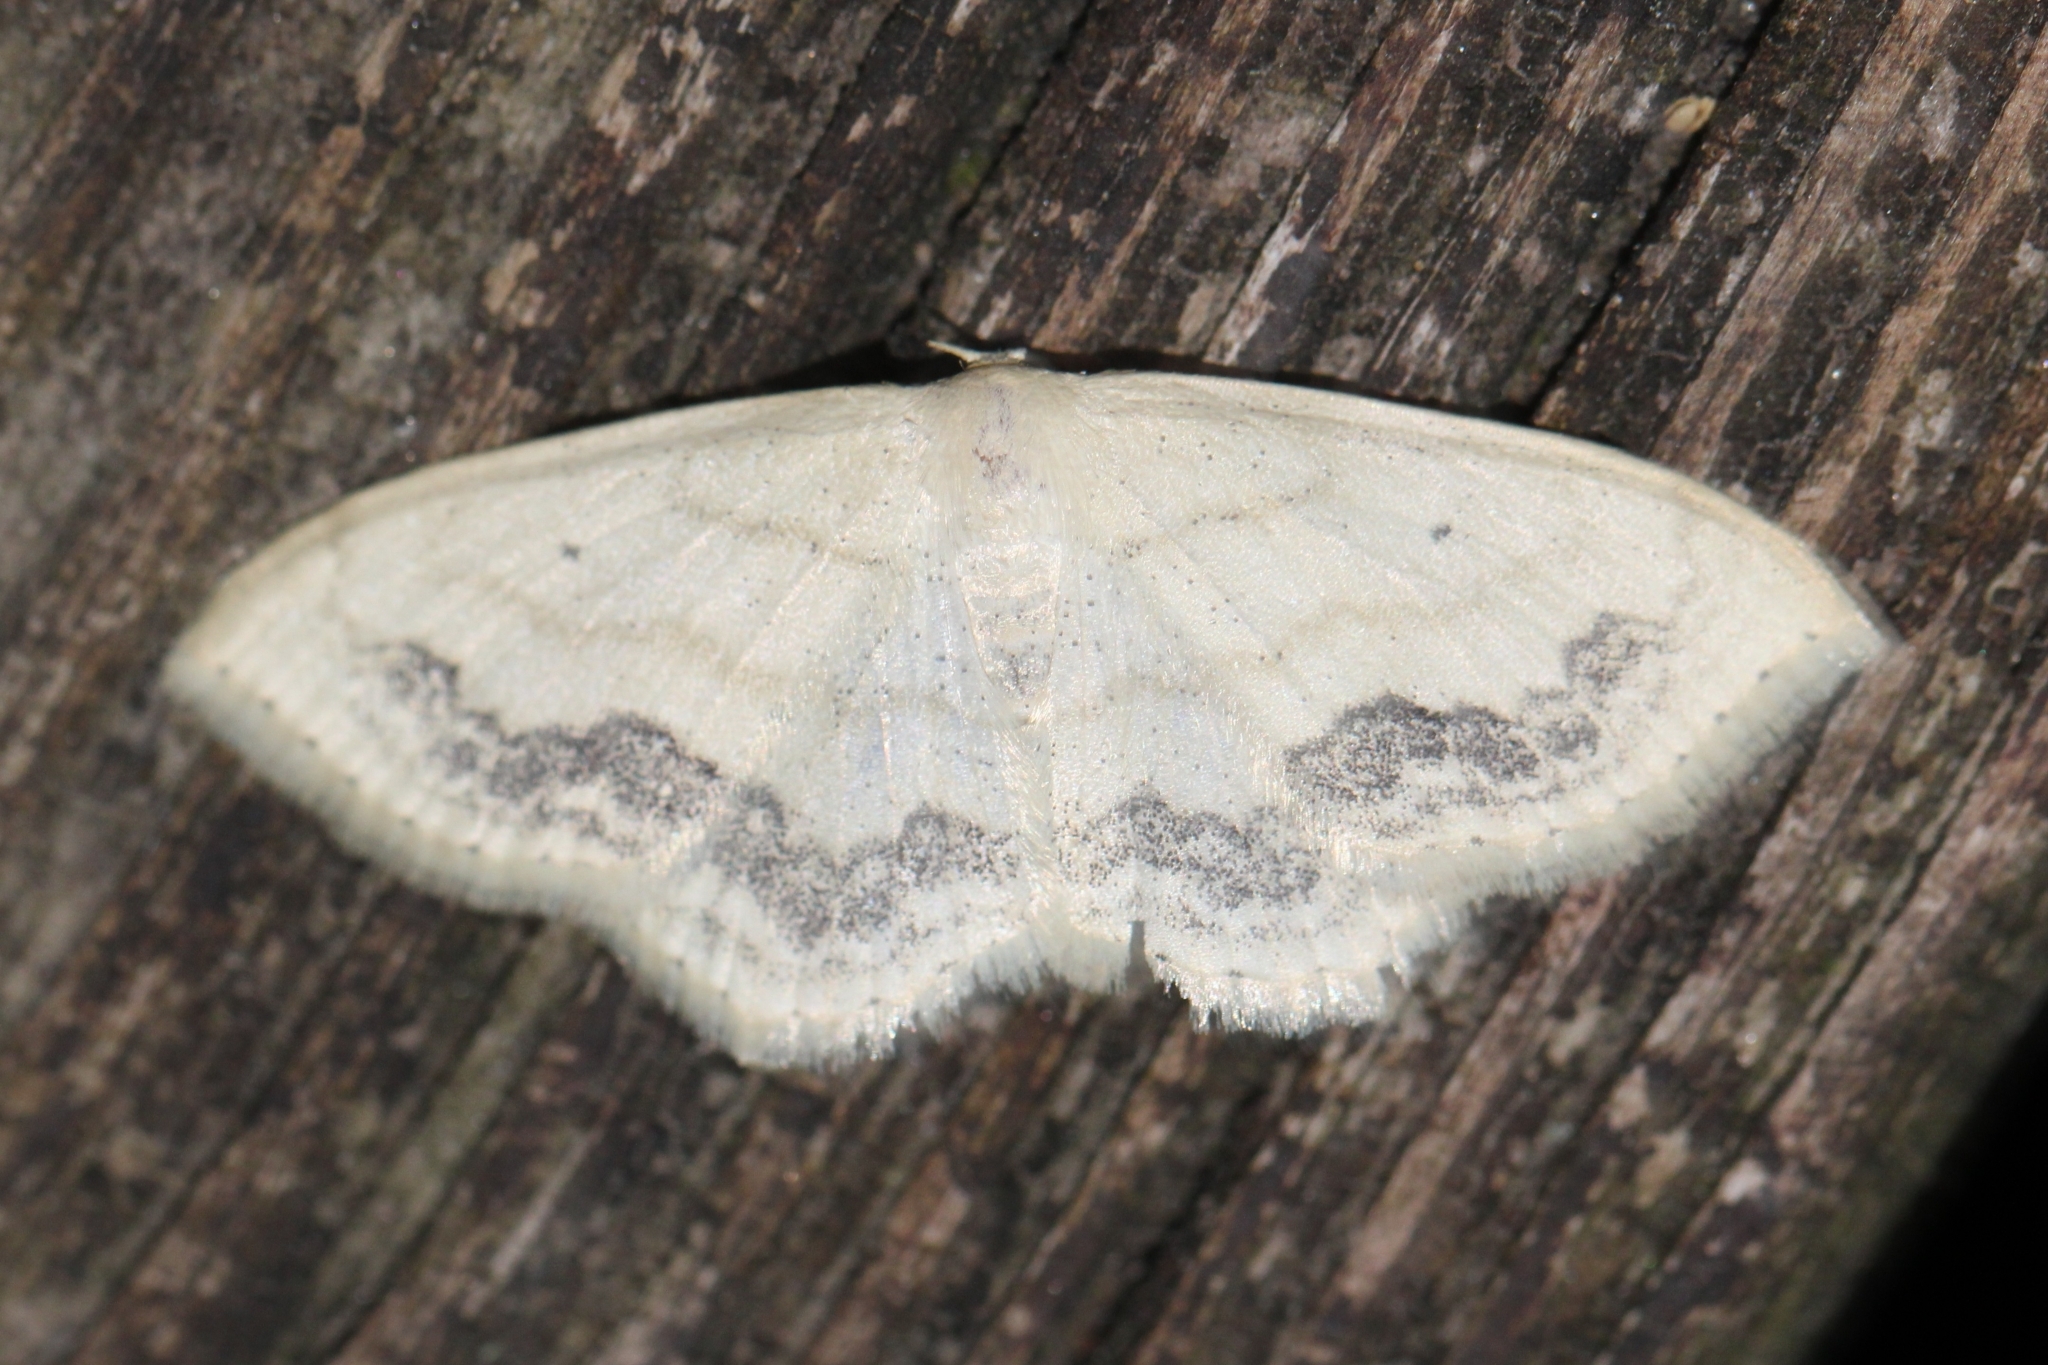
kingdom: Animalia
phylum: Arthropoda
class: Insecta
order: Lepidoptera
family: Geometridae
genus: Scopula
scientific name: Scopula limboundata
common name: Large lace border
